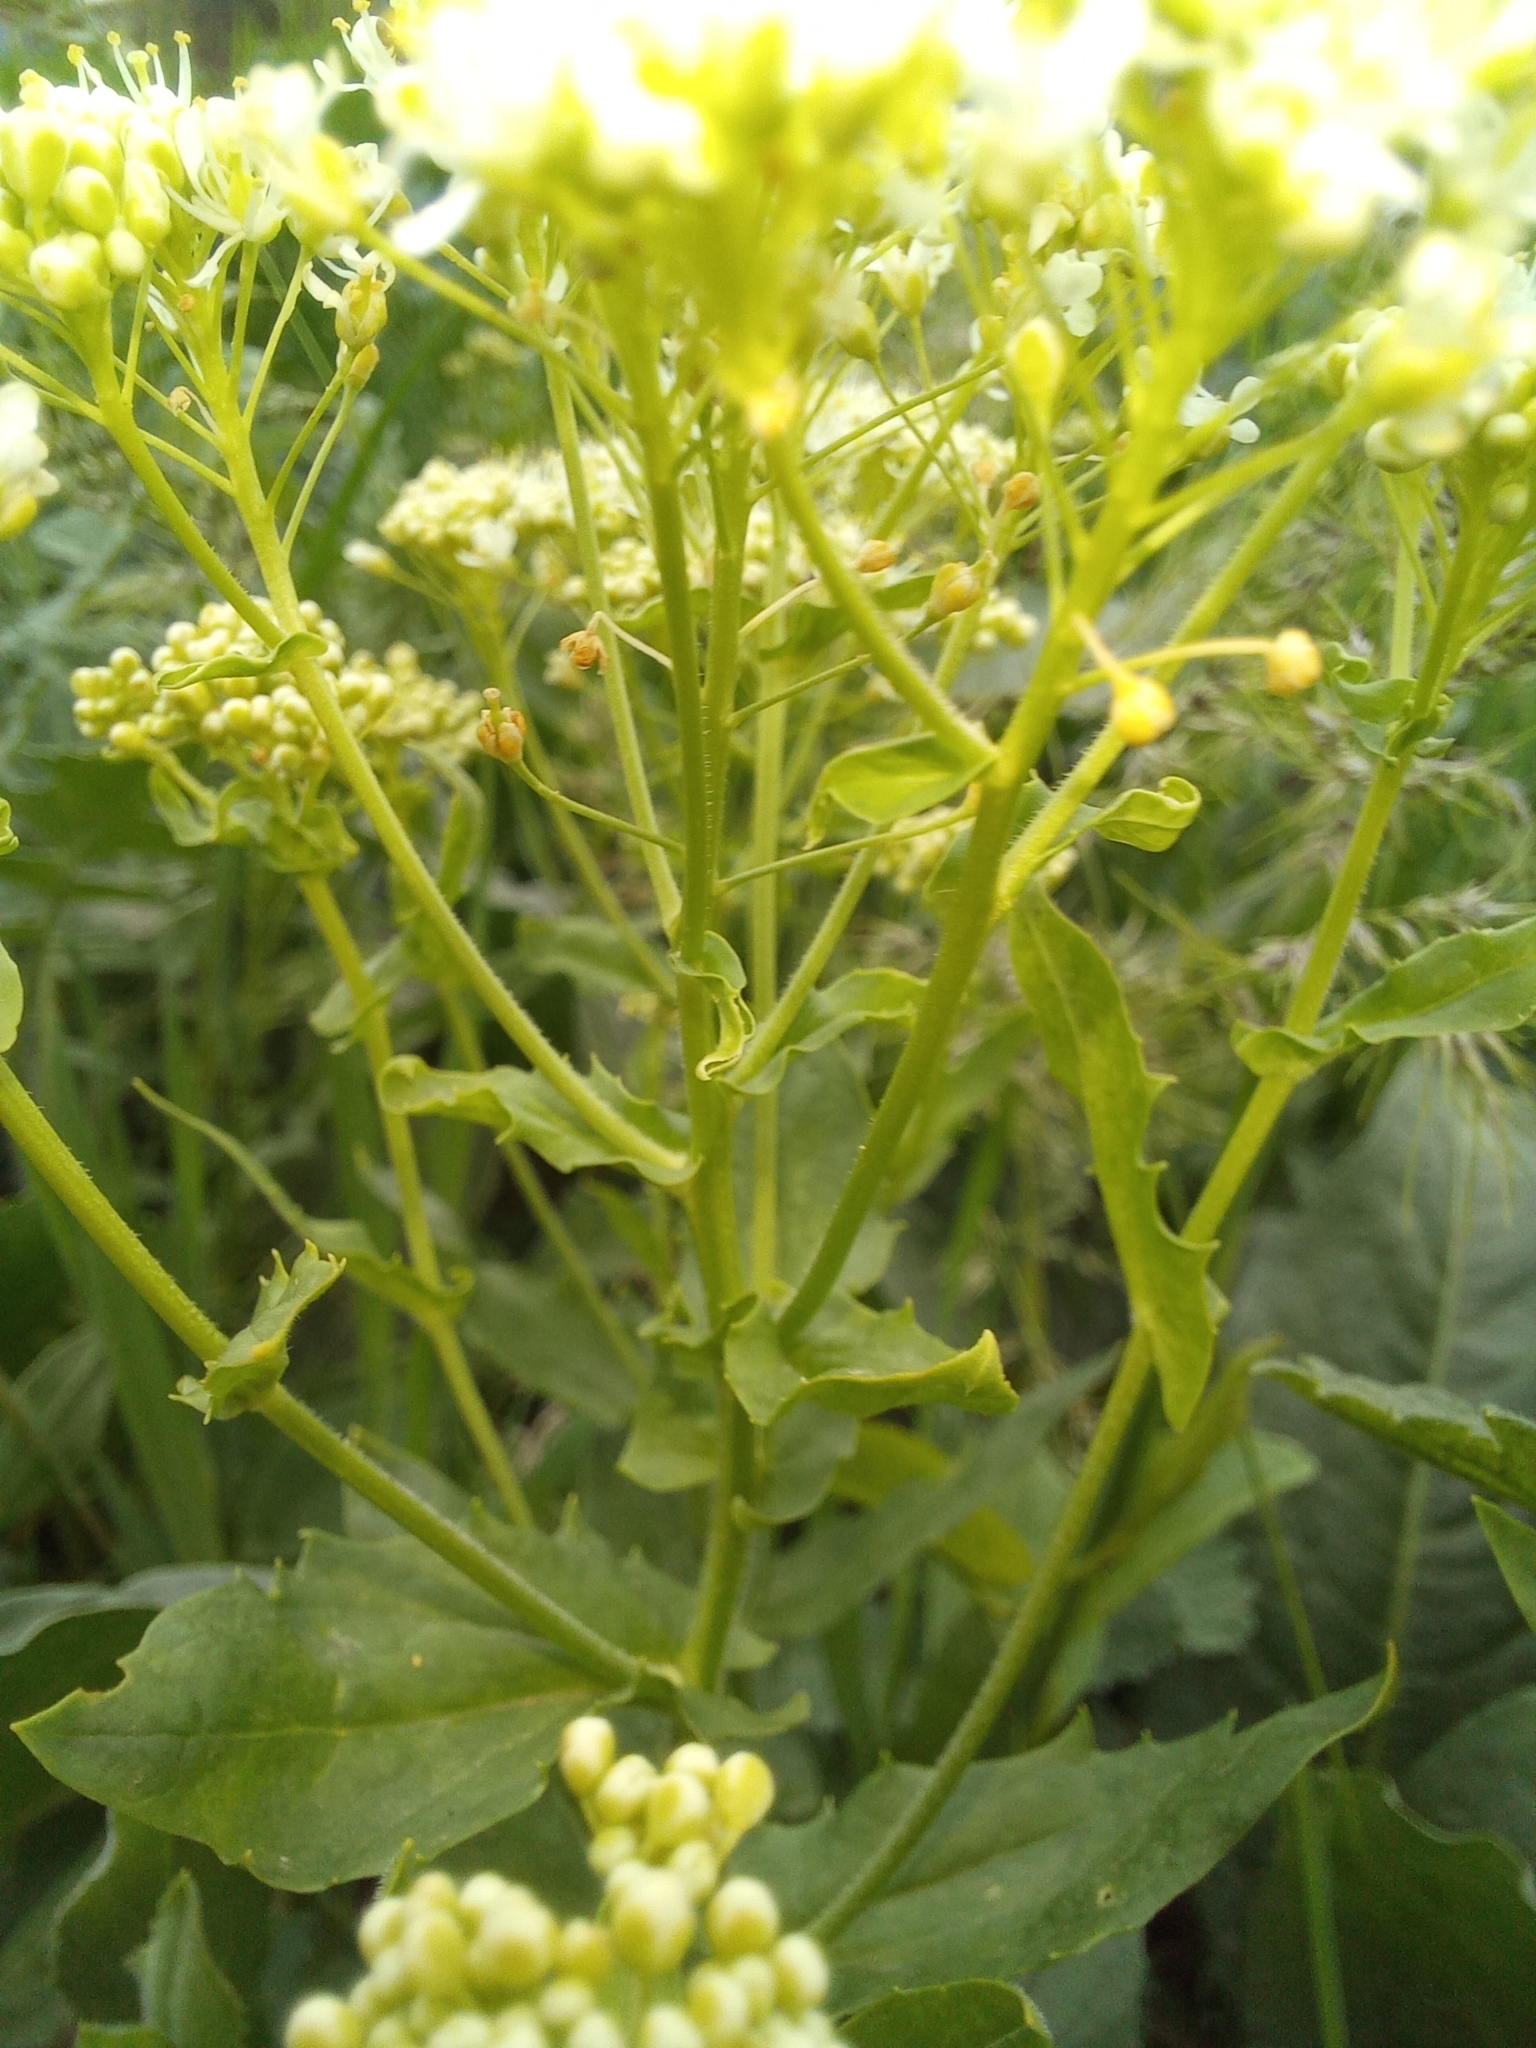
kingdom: Plantae
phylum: Tracheophyta
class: Magnoliopsida
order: Brassicales
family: Brassicaceae
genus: Lepidium
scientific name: Lepidium draba
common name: Hoary cress
